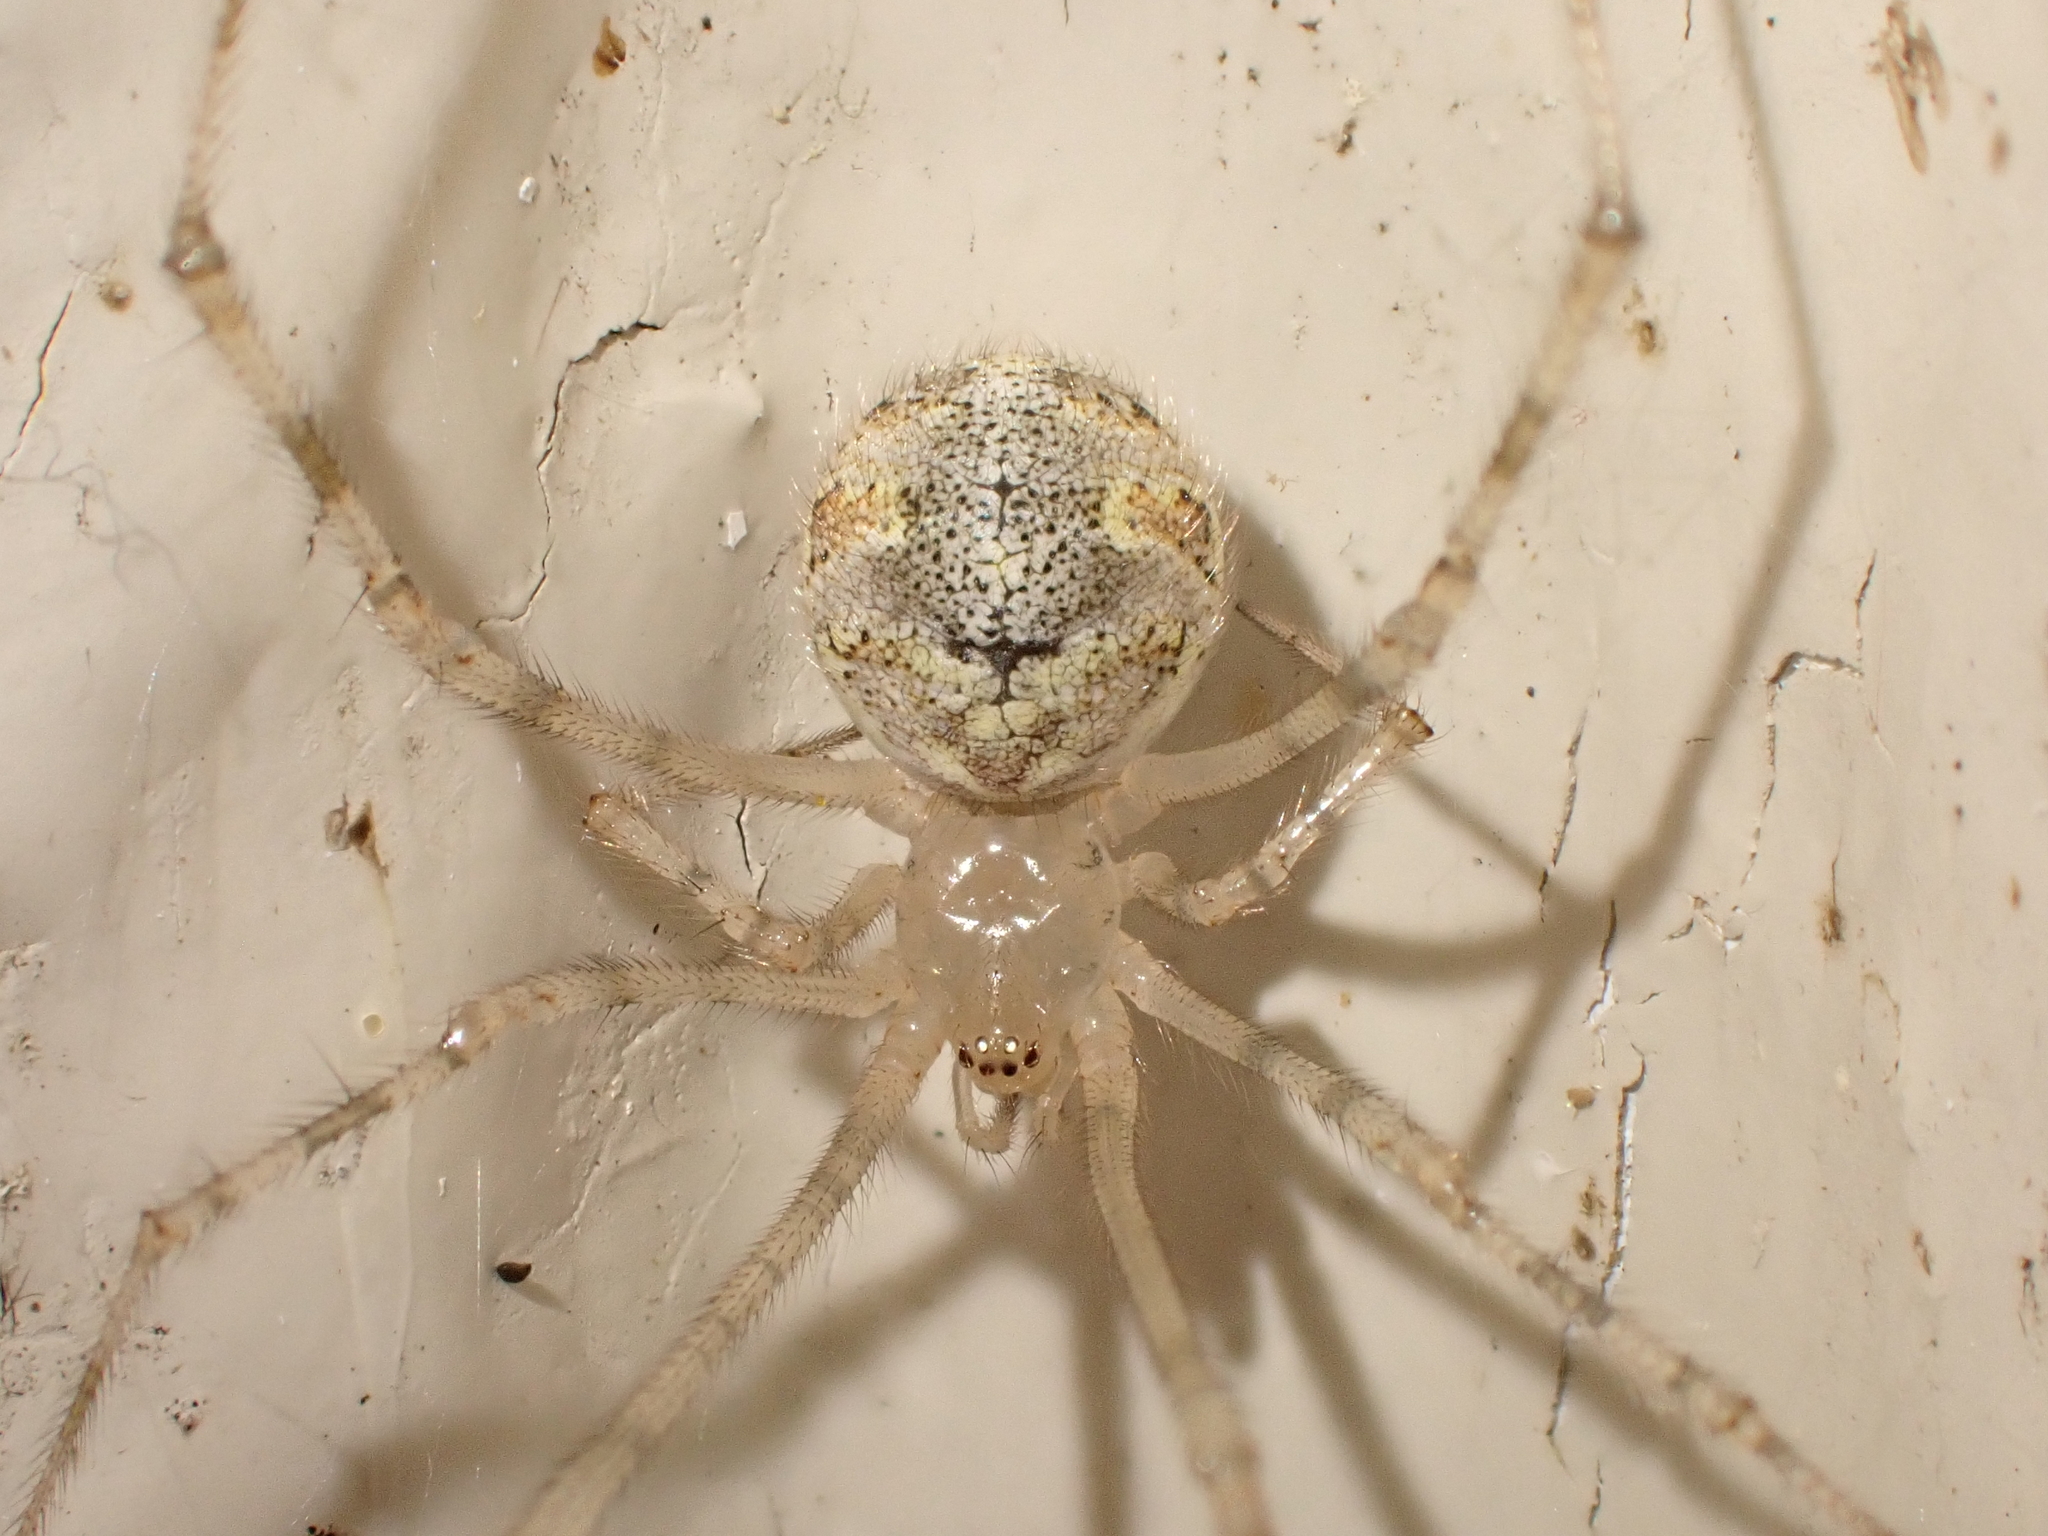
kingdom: Animalia
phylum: Arthropoda
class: Arachnida
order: Araneae
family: Theridiidae
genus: Cryptachaea
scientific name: Cryptachaea gigantipes
